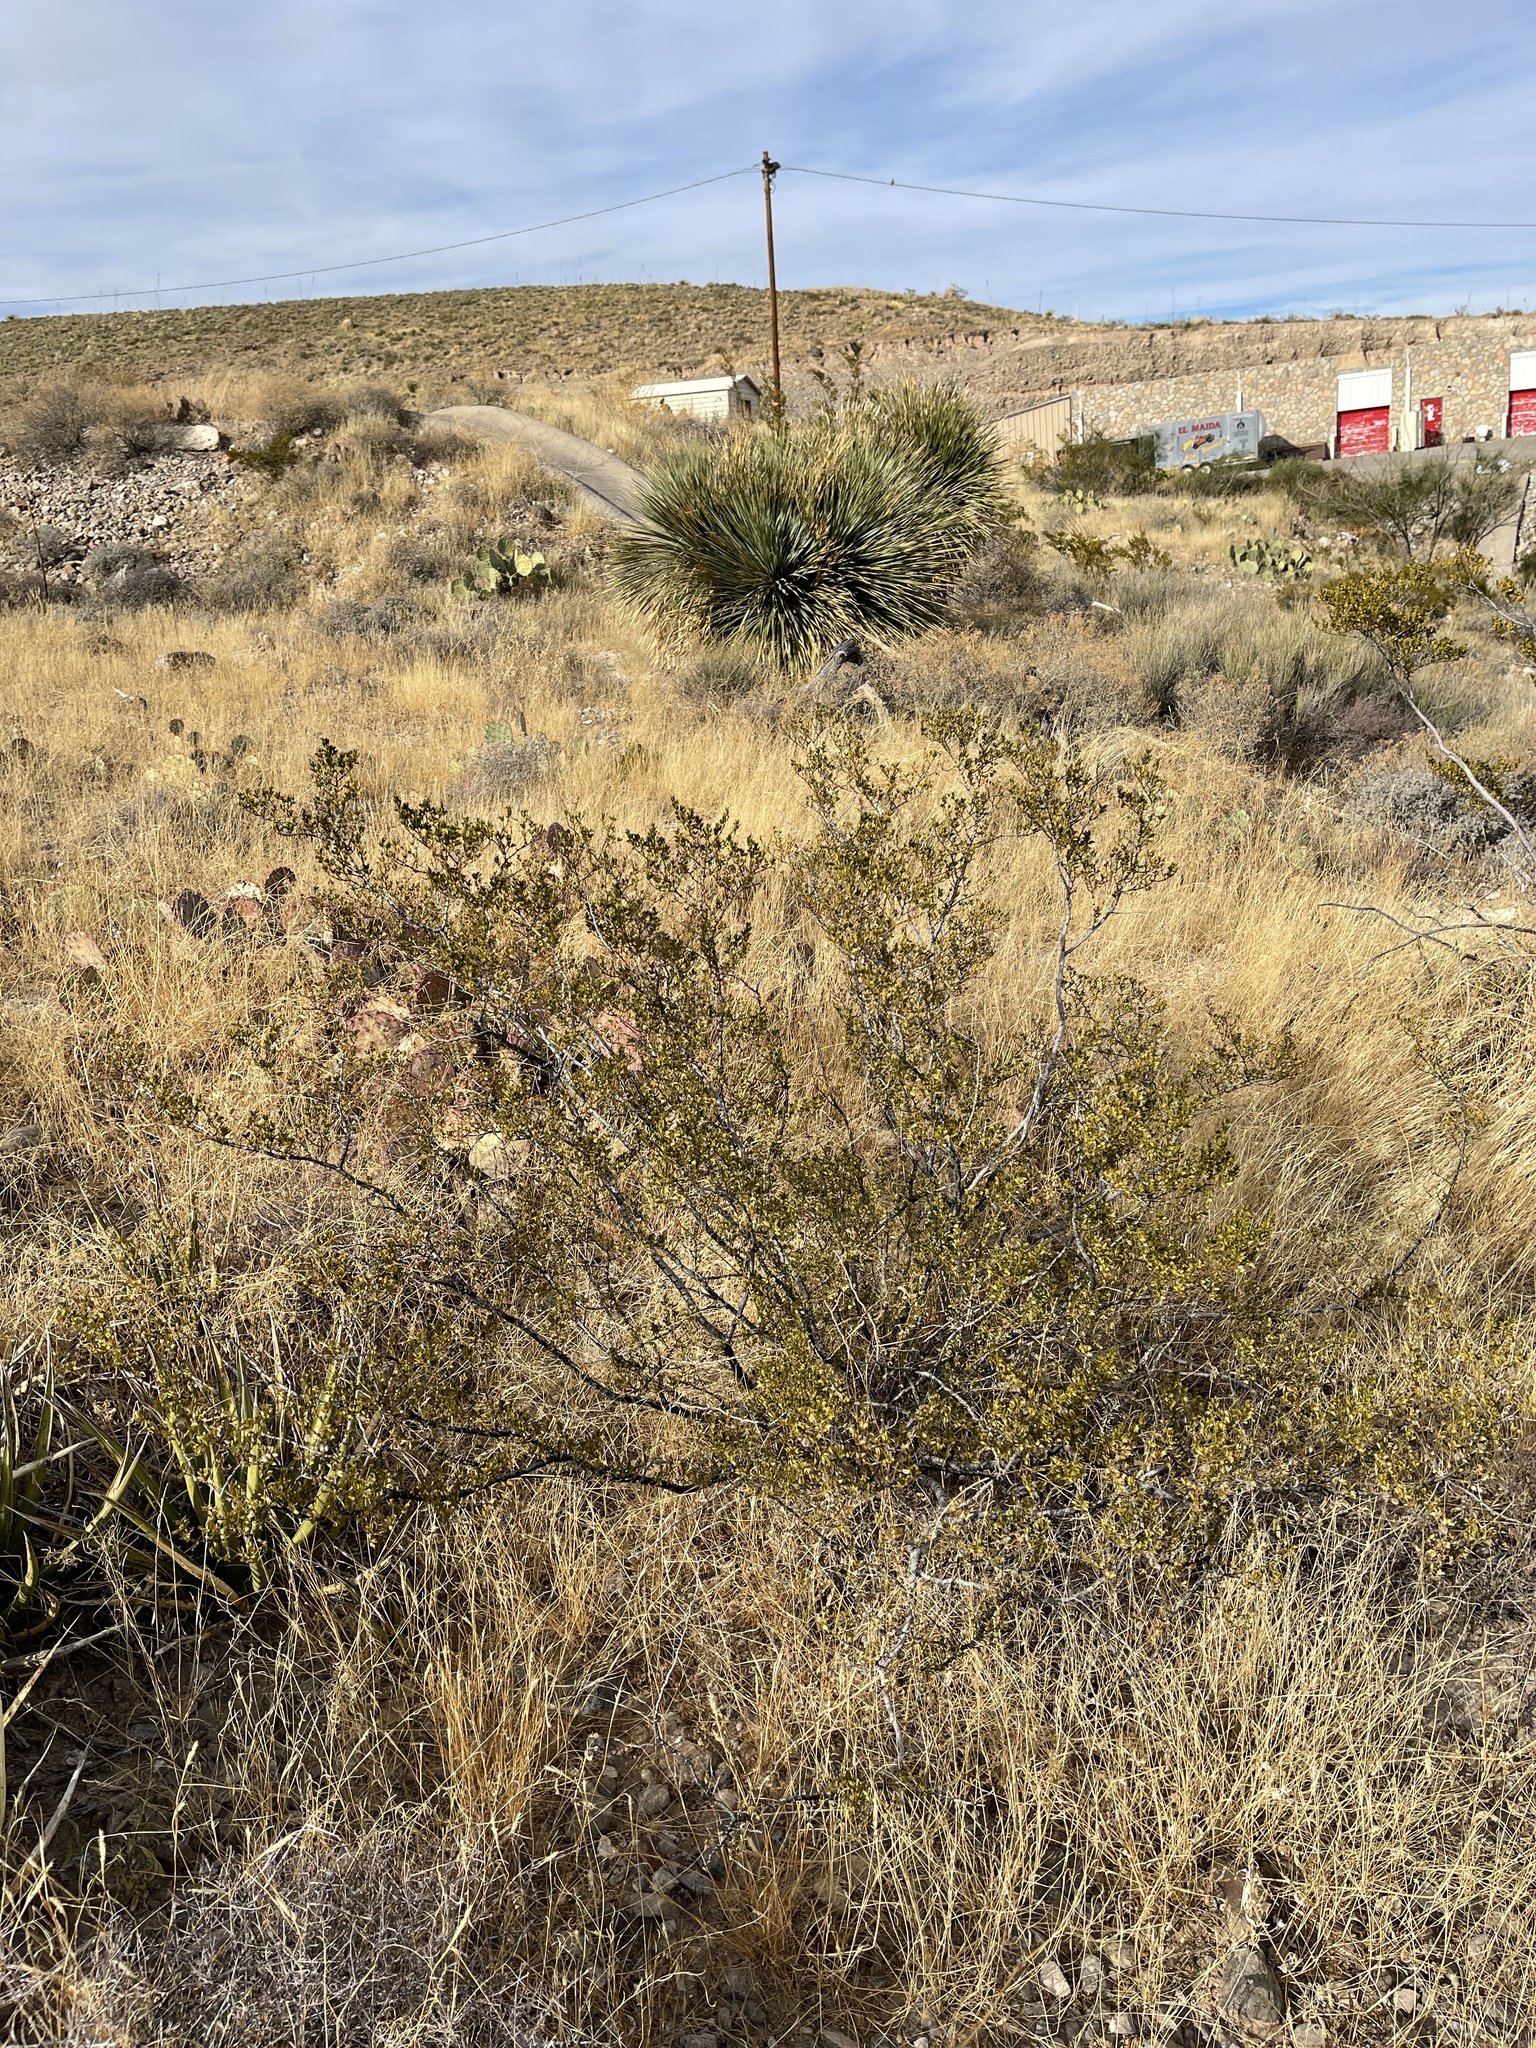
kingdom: Plantae
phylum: Tracheophyta
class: Magnoliopsida
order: Zygophyllales
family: Zygophyllaceae
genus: Larrea
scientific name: Larrea tridentata
